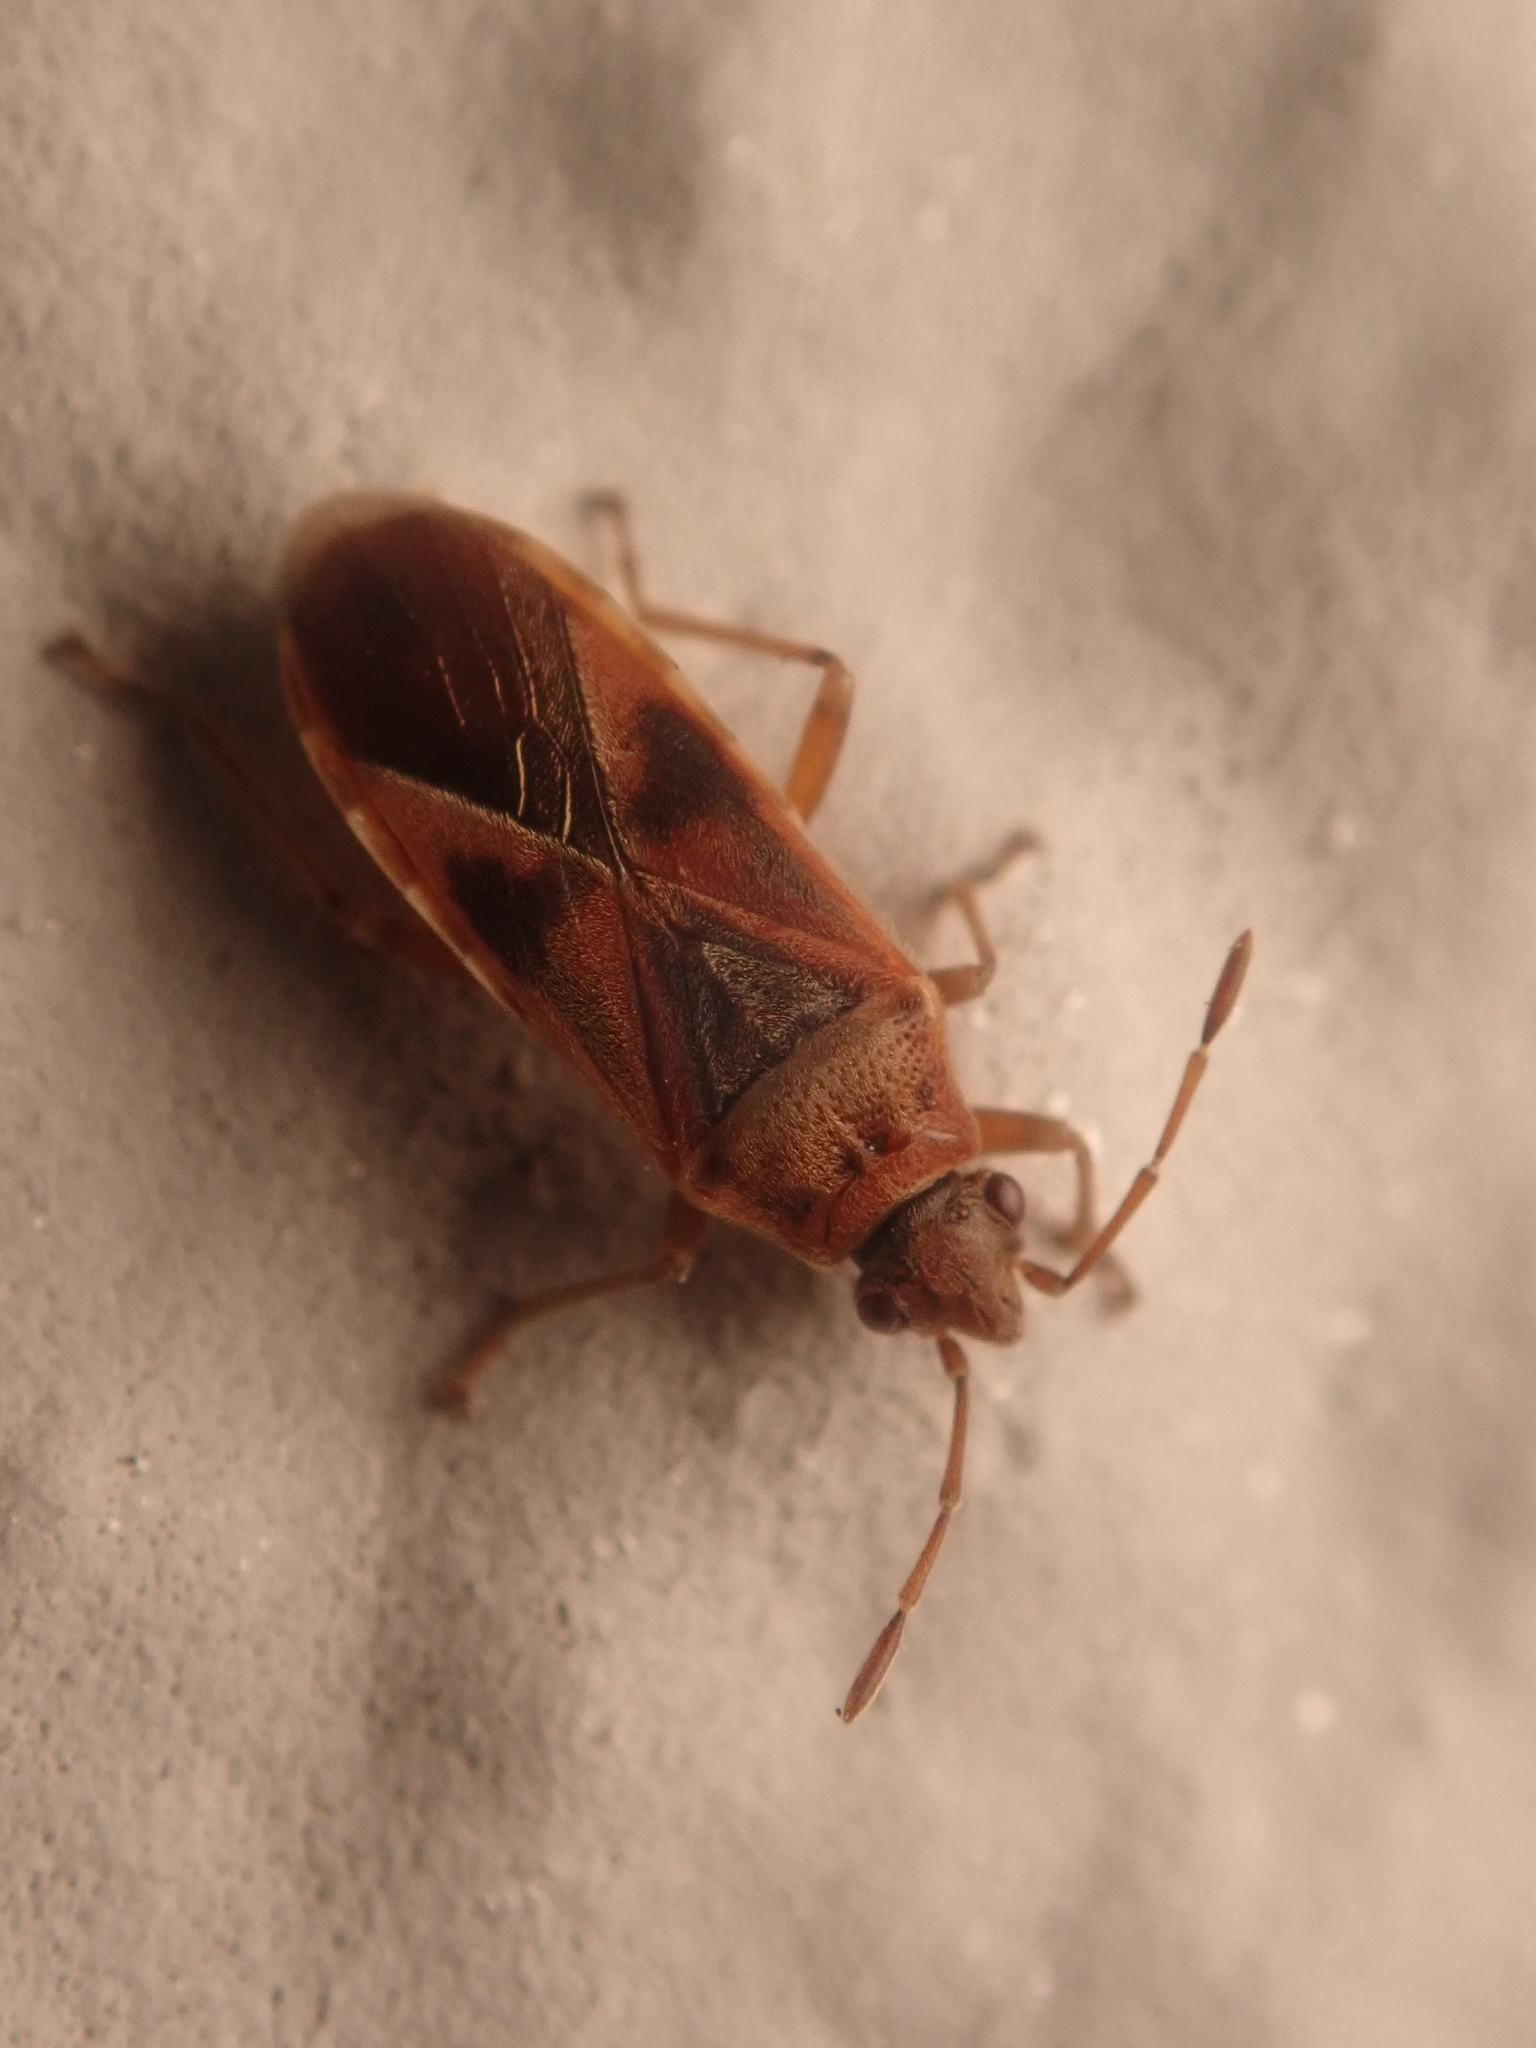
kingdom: Animalia
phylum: Arthropoda
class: Insecta
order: Hemiptera
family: Lygaeidae
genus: Arocatus
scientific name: Arocatus roeselii
